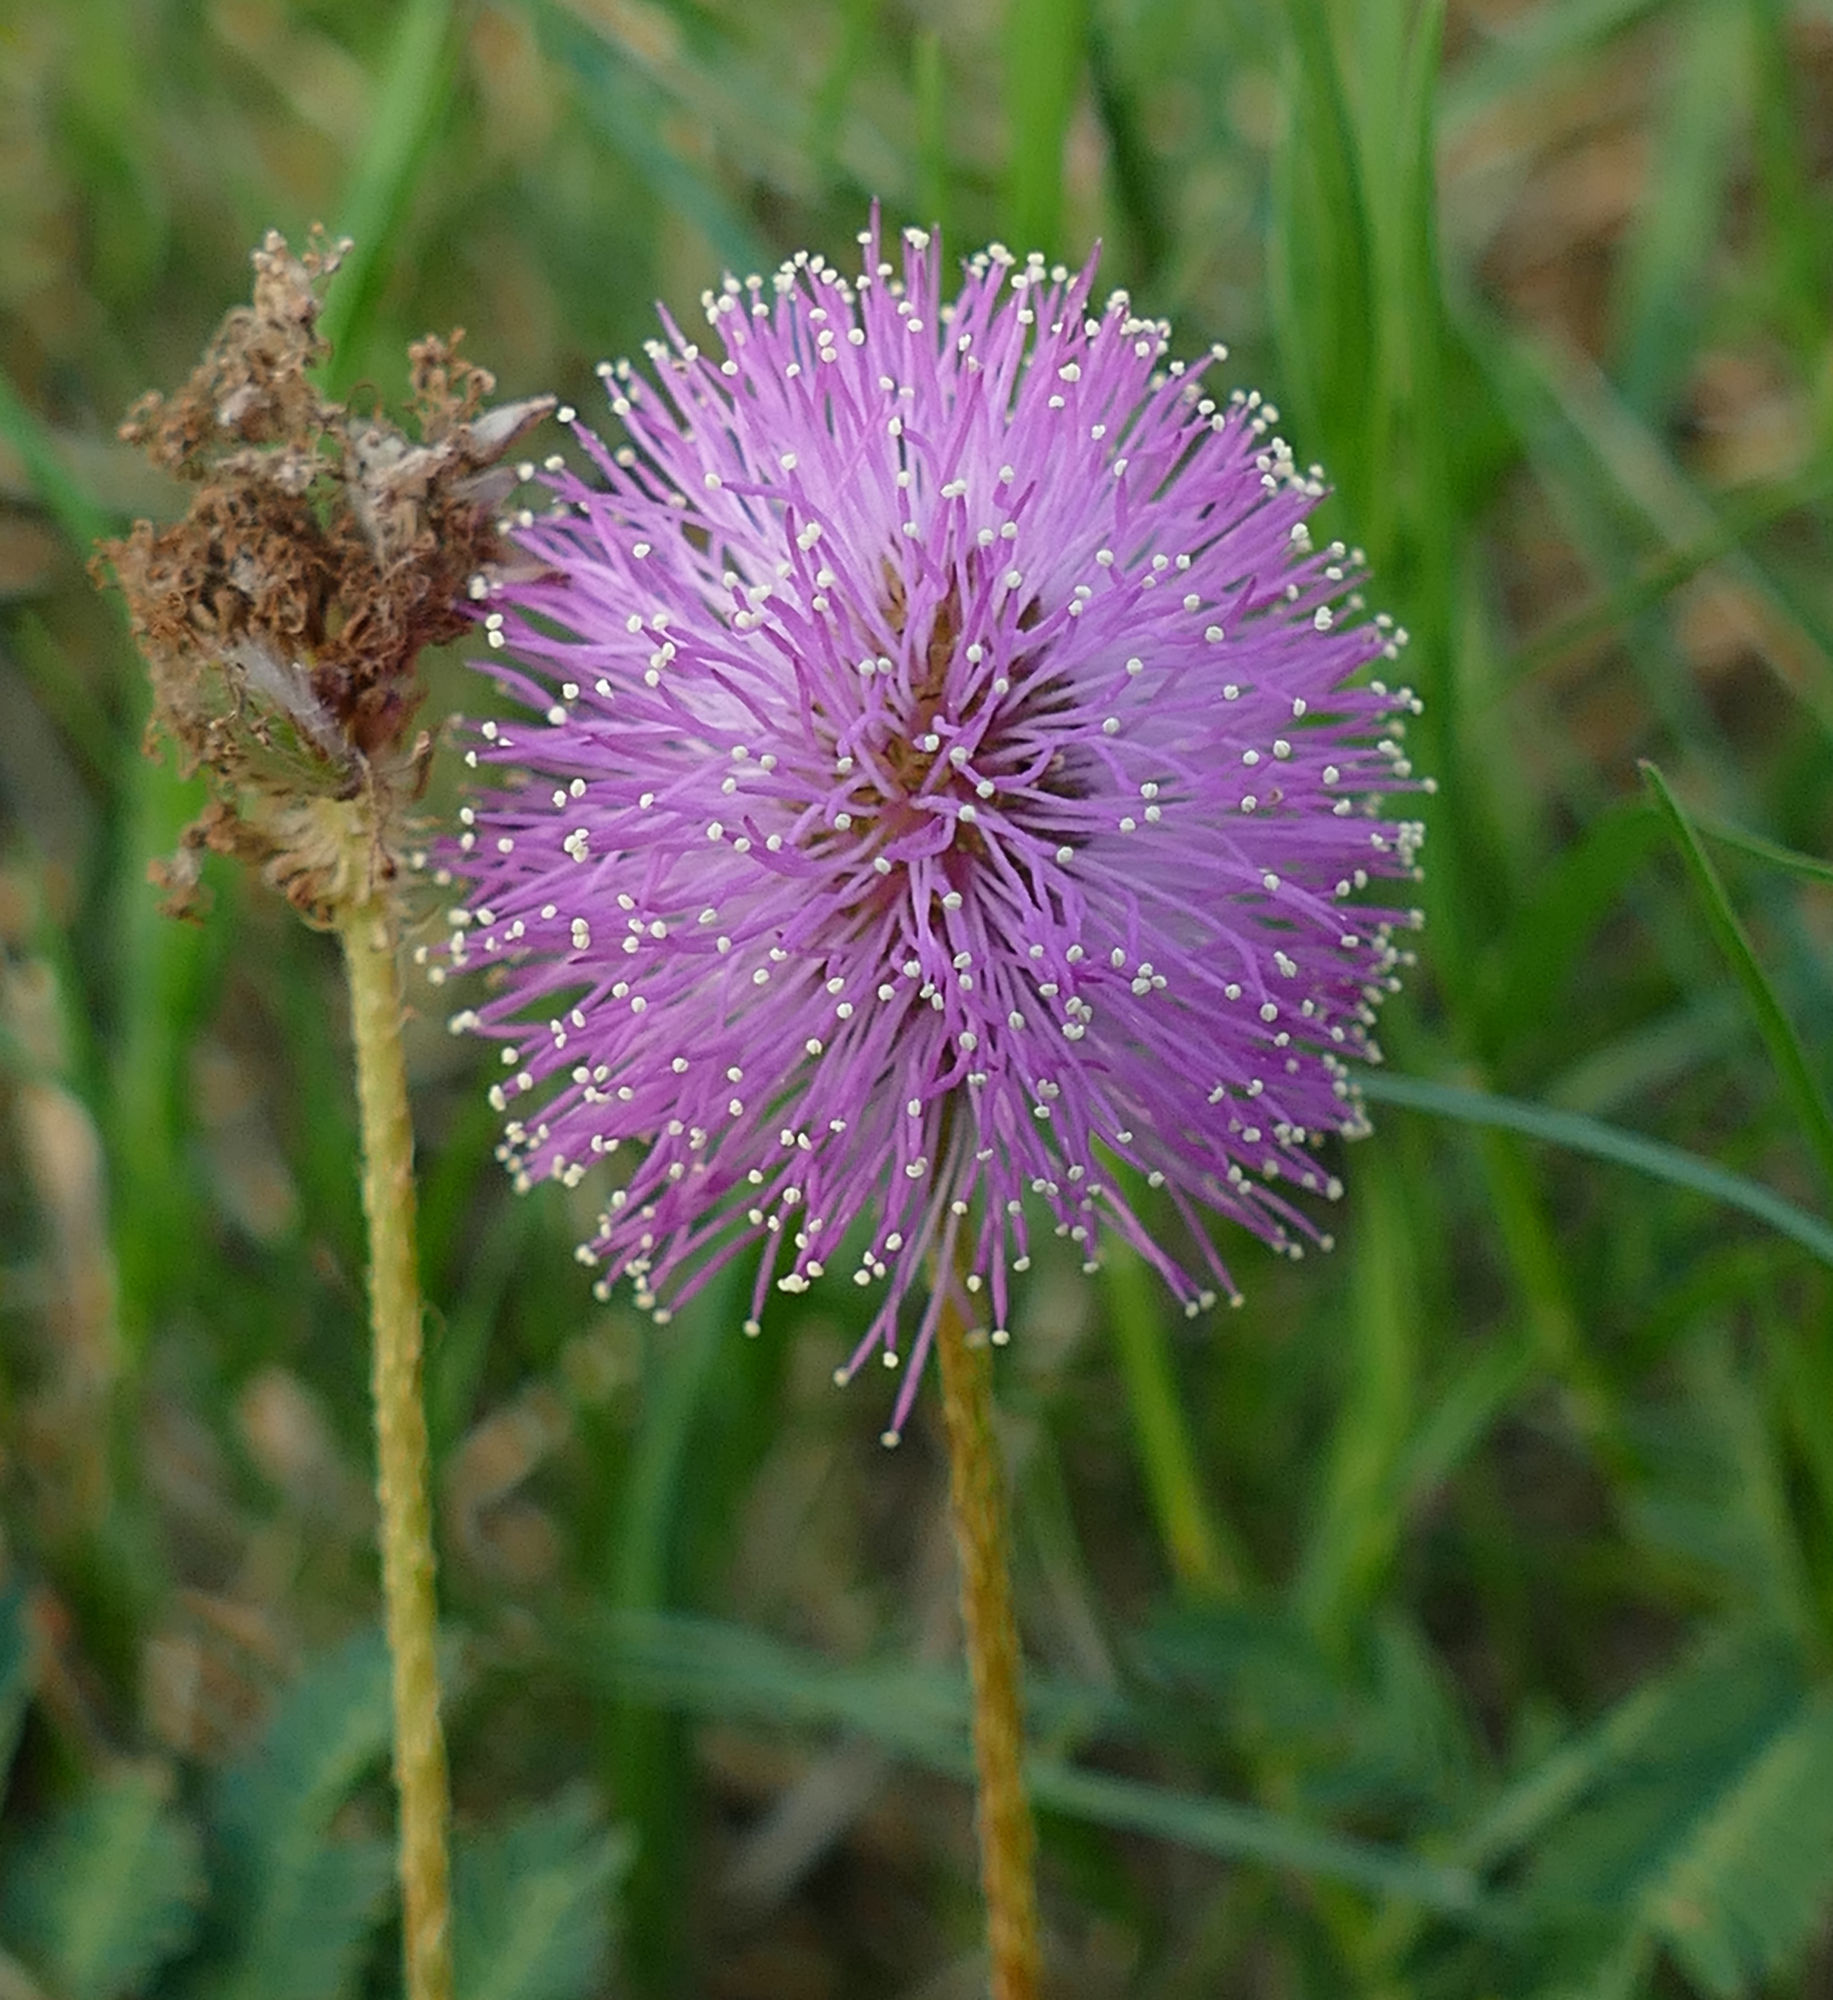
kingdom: Plantae
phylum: Tracheophyta
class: Magnoliopsida
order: Fabales
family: Fabaceae
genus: Mimosa
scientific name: Mimosa strigillosa
